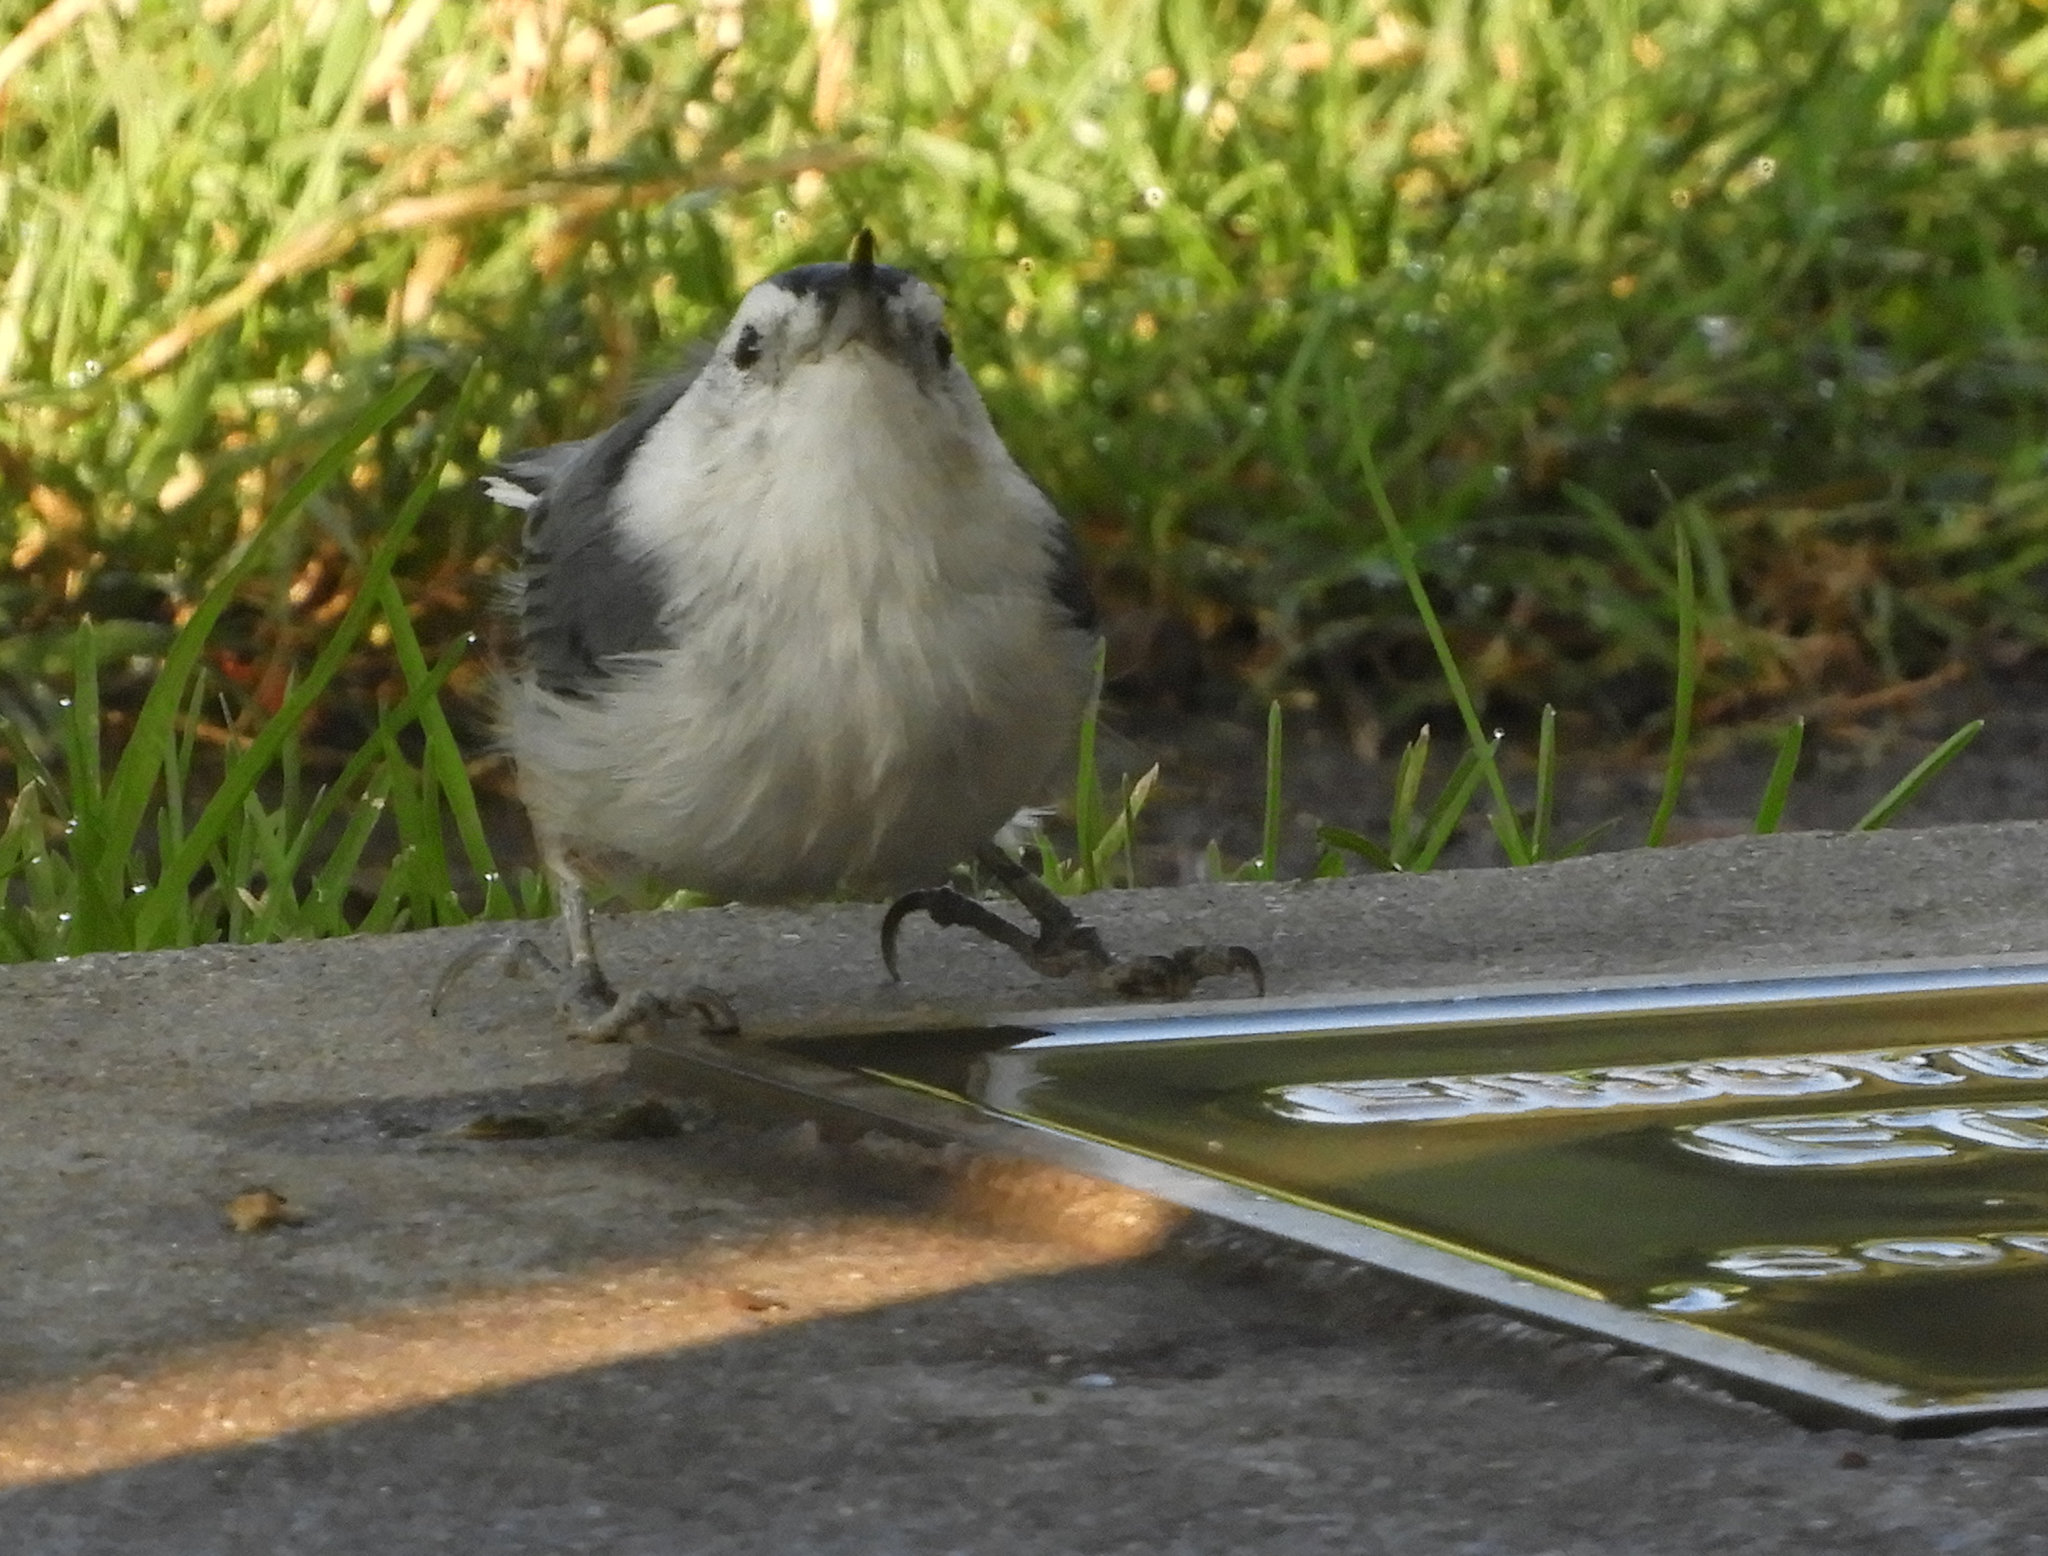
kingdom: Animalia
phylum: Chordata
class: Aves
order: Passeriformes
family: Sittidae
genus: Sitta
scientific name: Sitta carolinensis
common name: White-breasted nuthatch
